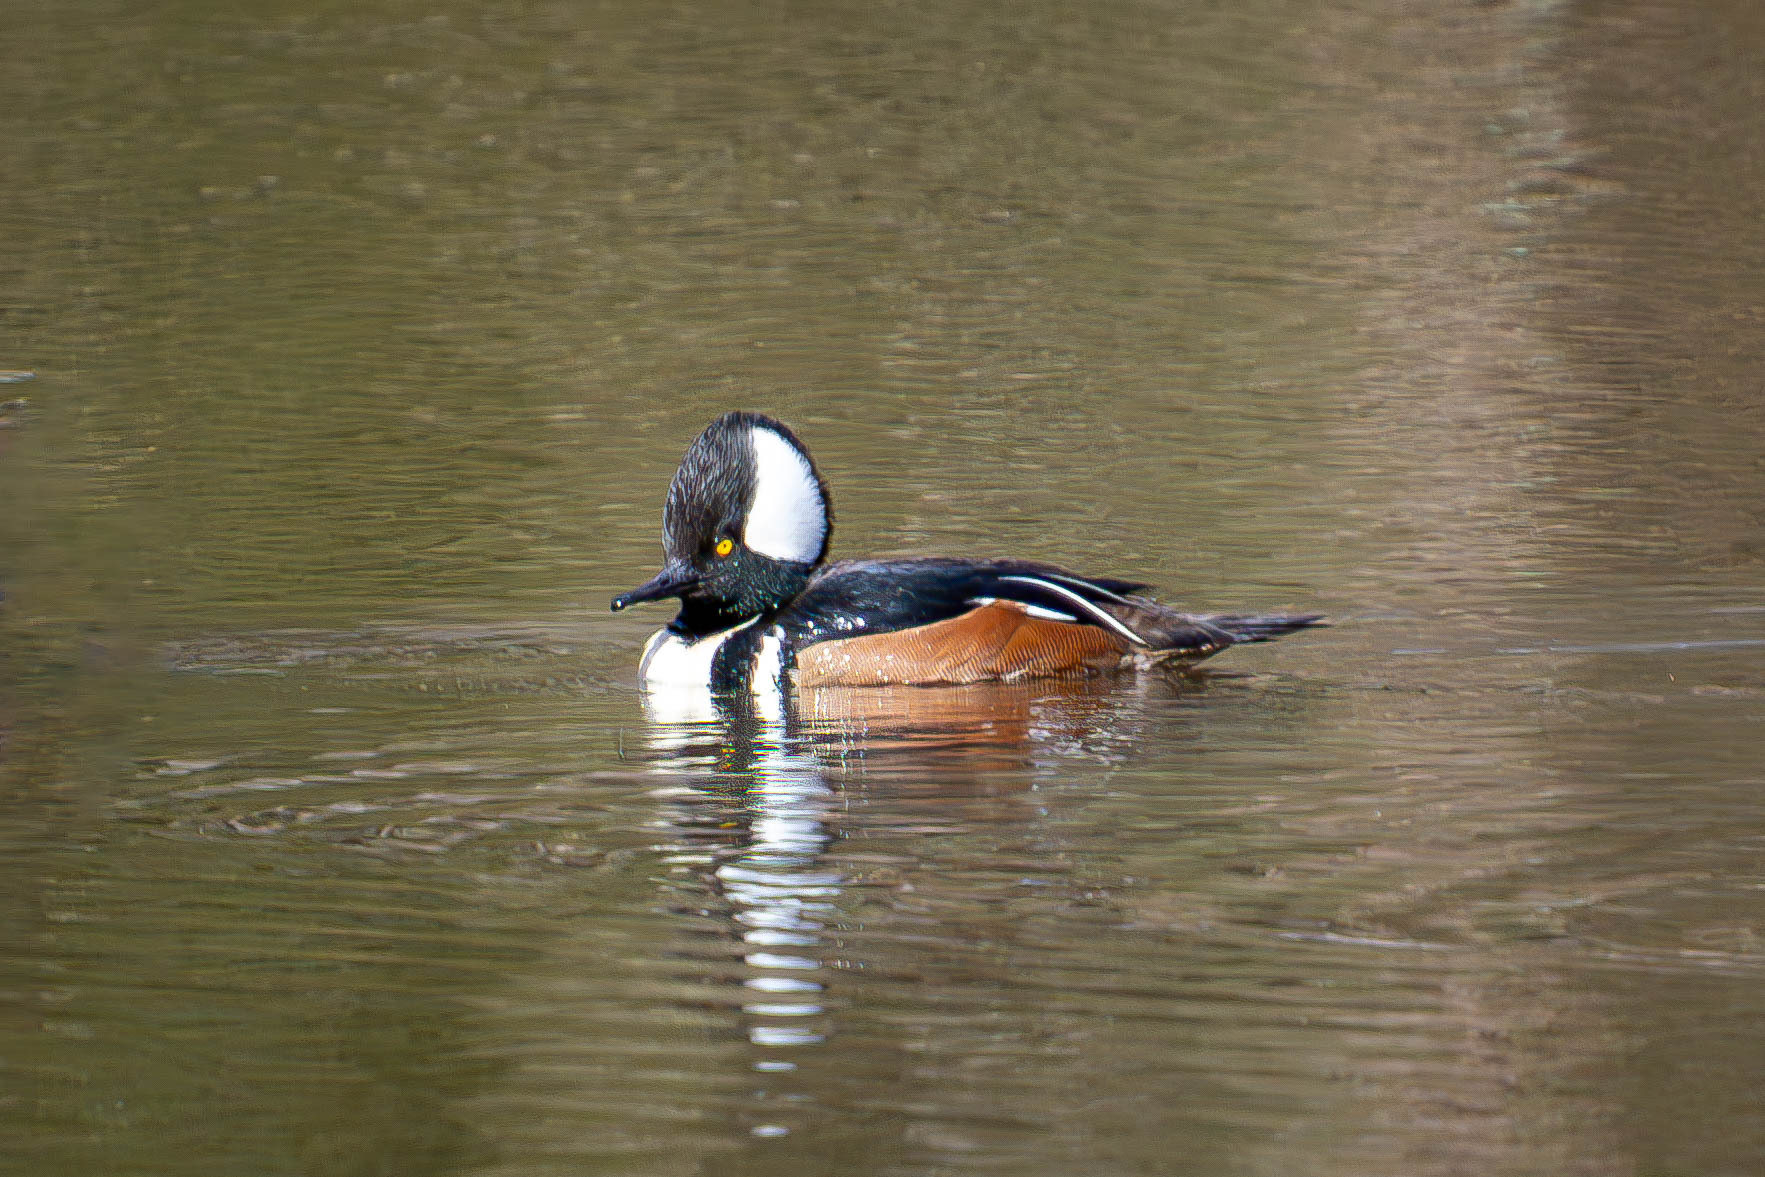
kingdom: Animalia
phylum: Chordata
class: Aves
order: Anseriformes
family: Anatidae
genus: Lophodytes
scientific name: Lophodytes cucullatus
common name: Hooded merganser
